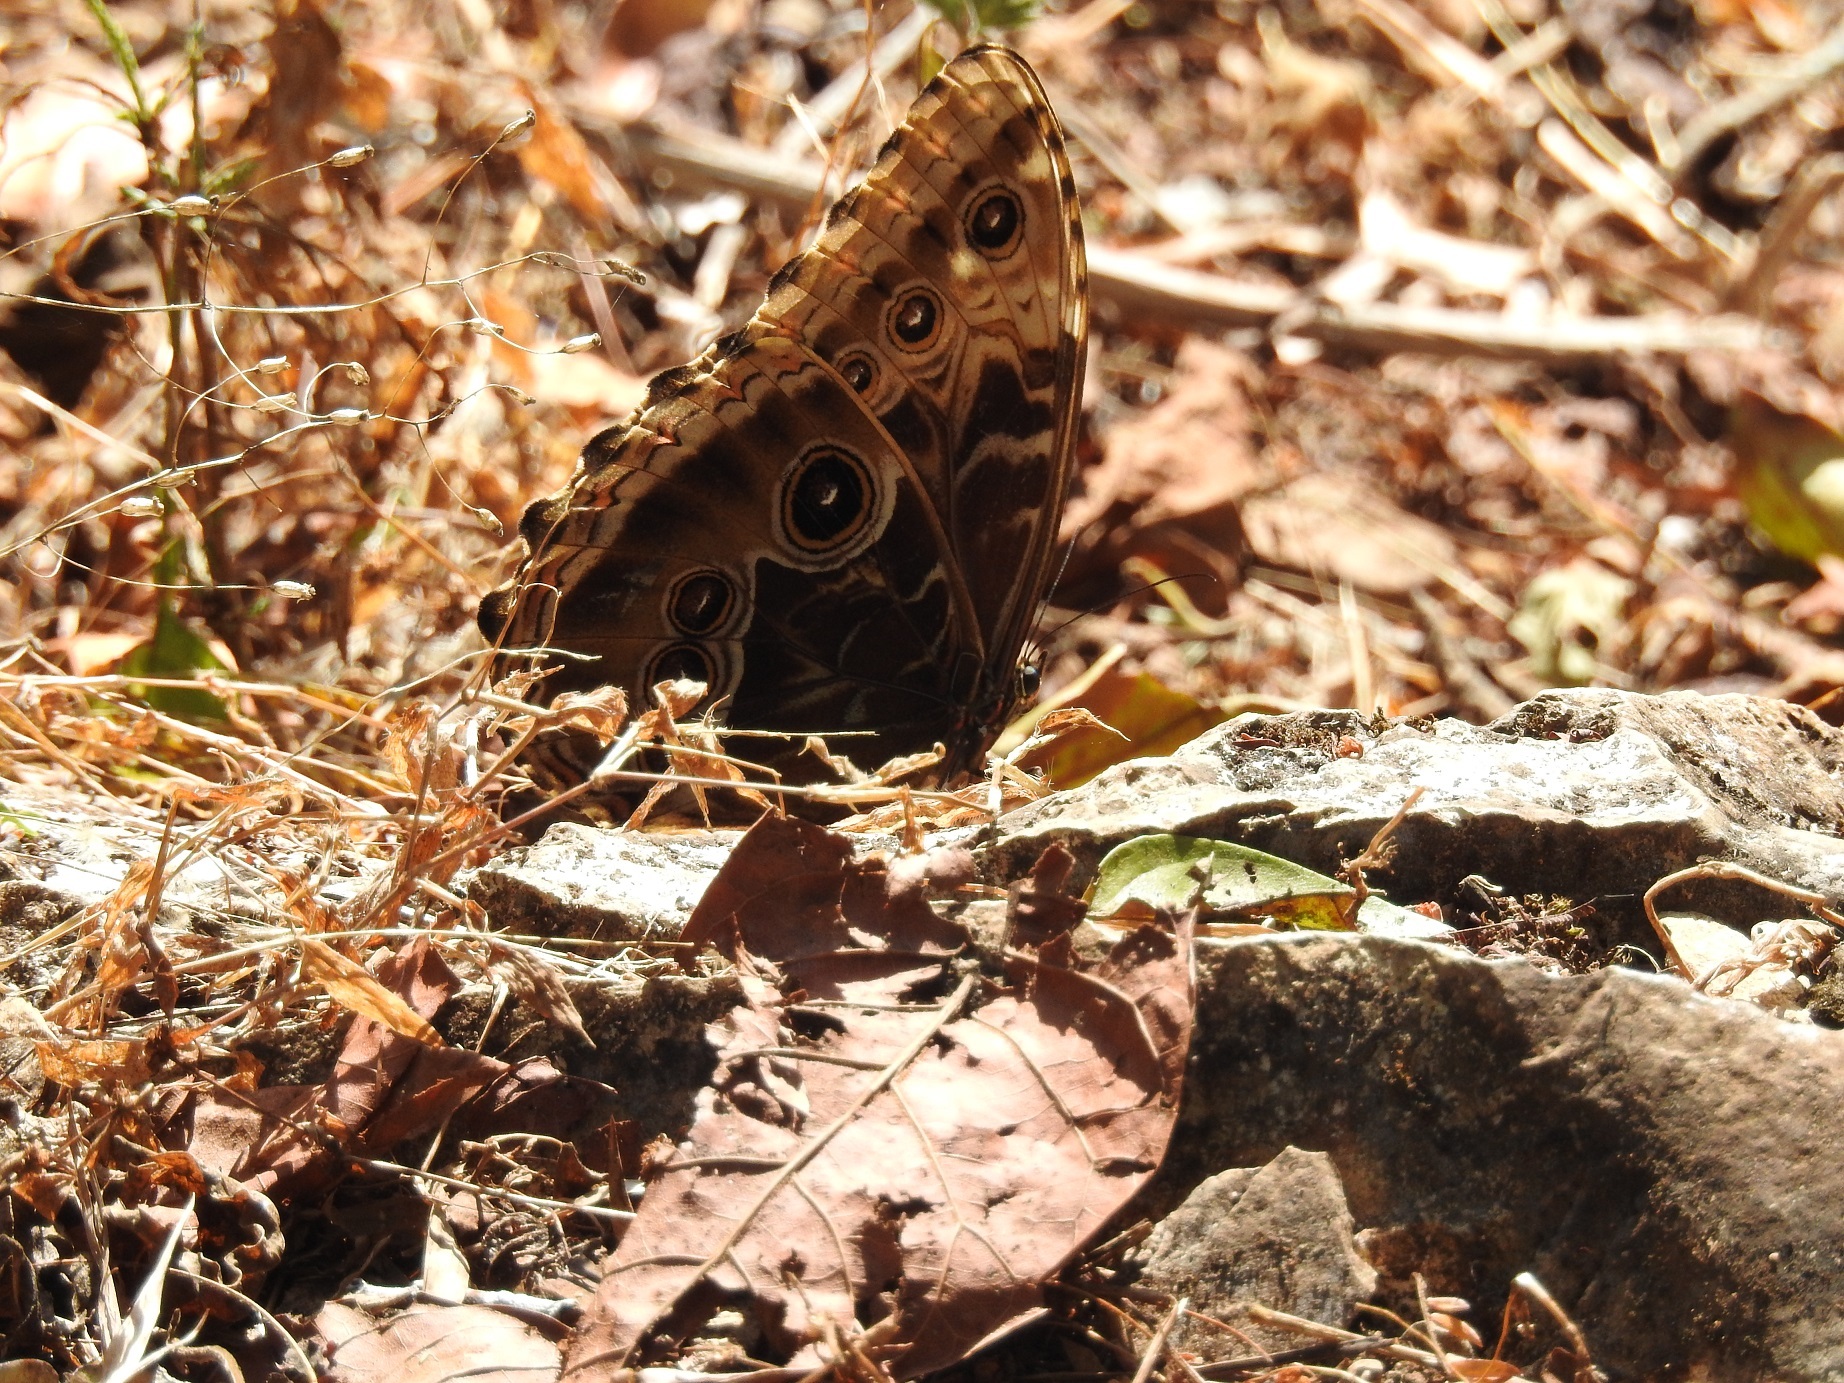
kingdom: Animalia
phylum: Arthropoda
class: Insecta
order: Lepidoptera
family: Nymphalidae
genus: Morpho
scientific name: Morpho helenor
